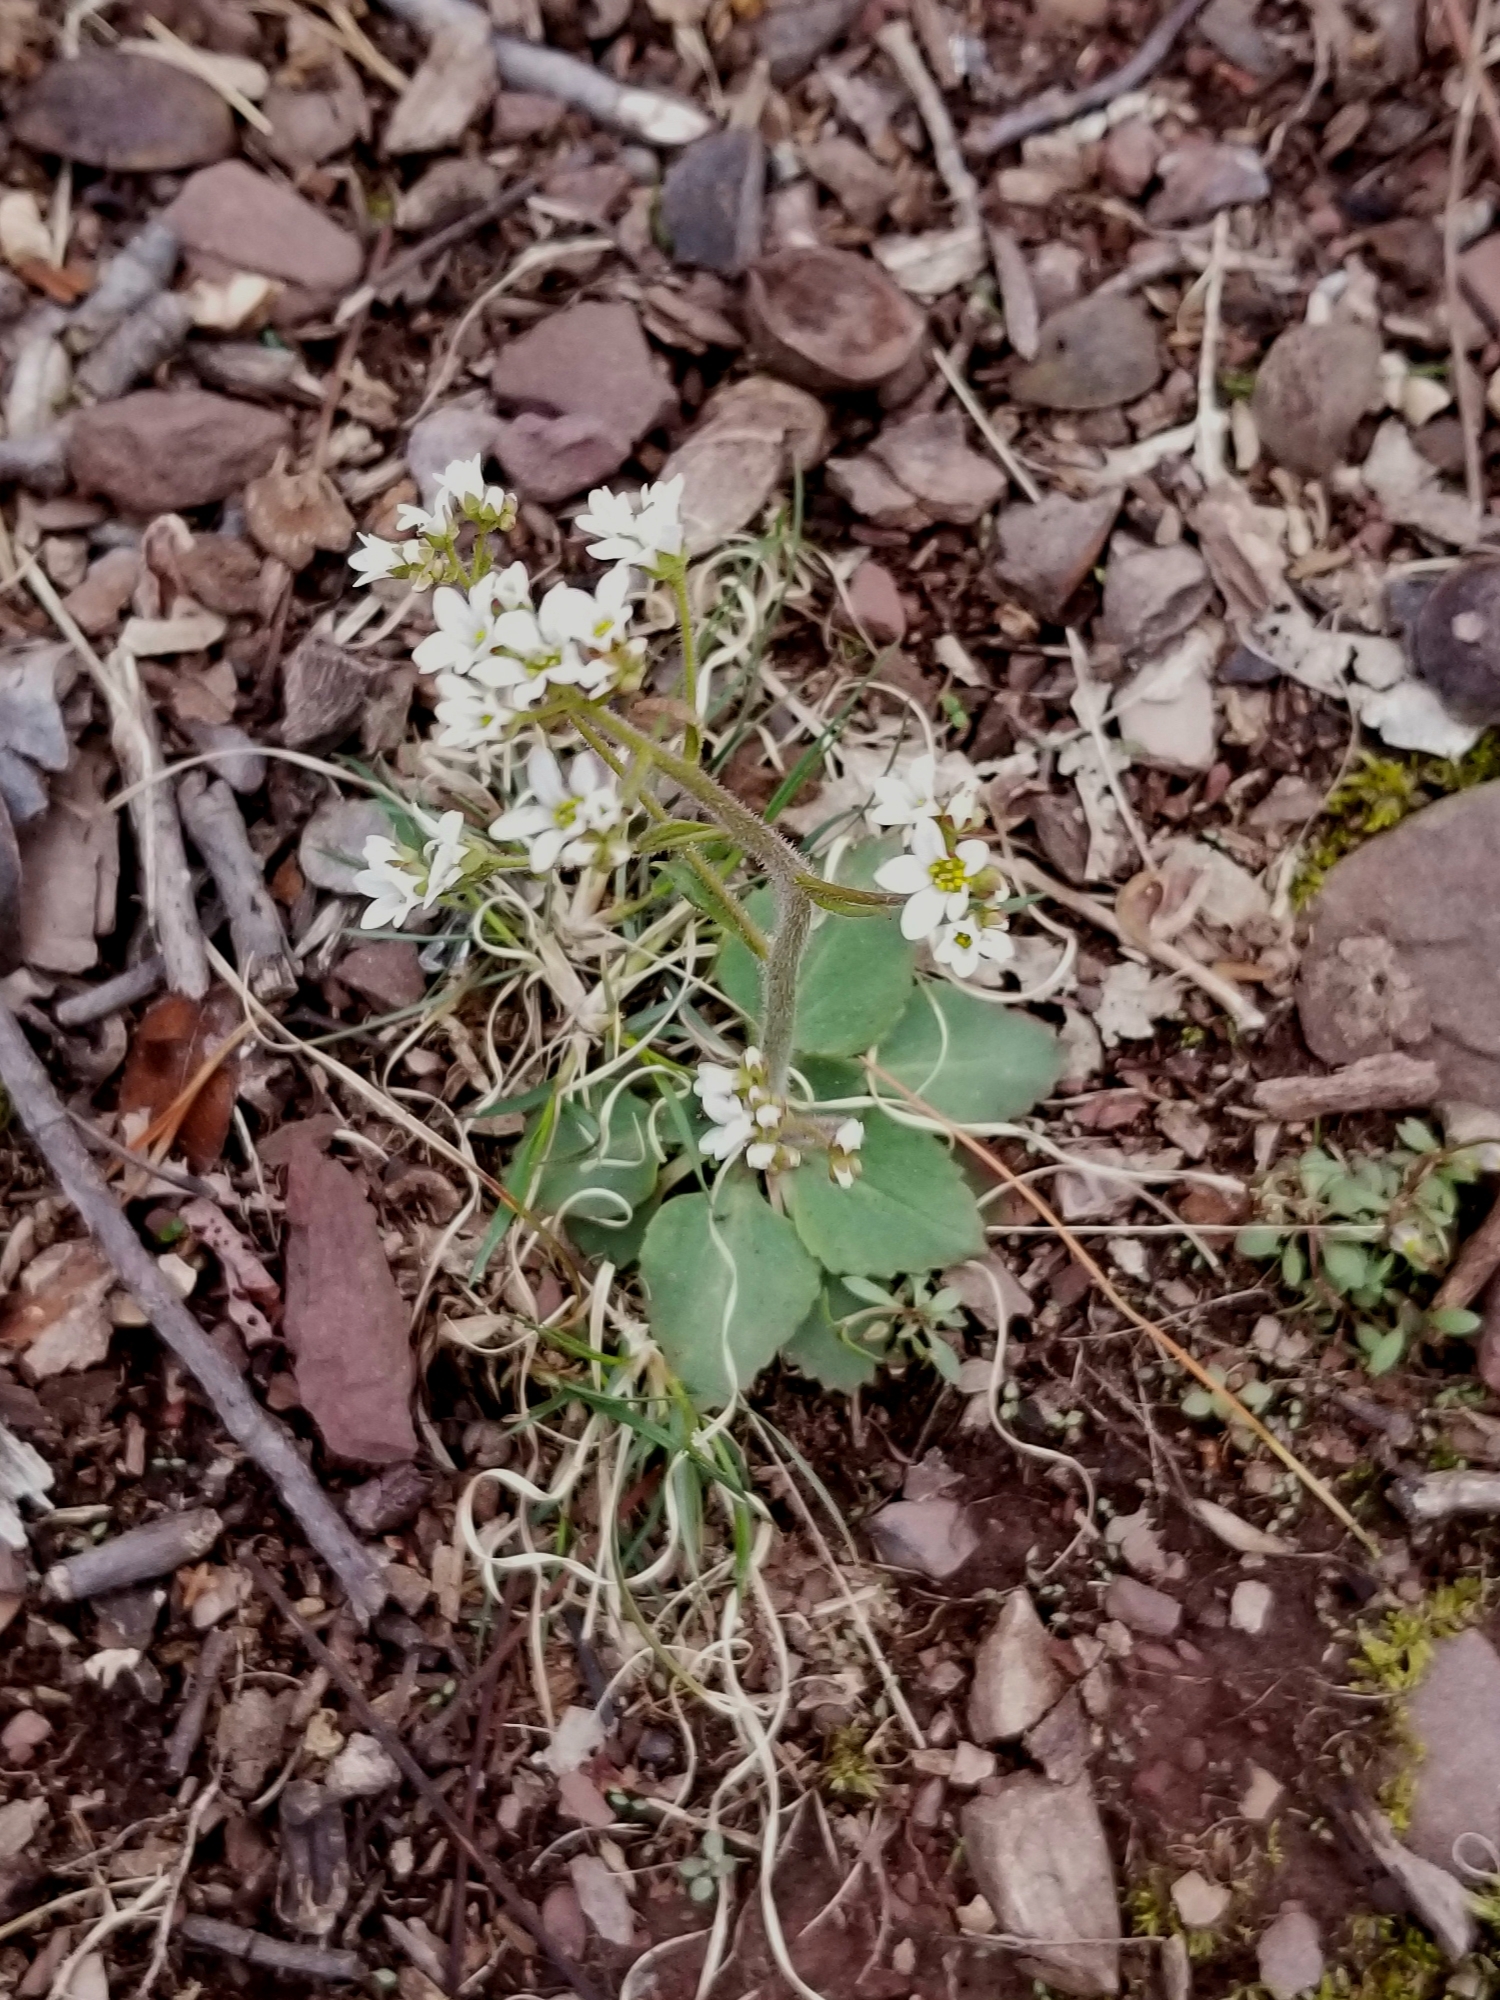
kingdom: Plantae
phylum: Tracheophyta
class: Magnoliopsida
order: Saxifragales
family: Saxifragaceae
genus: Micranthes
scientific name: Micranthes virginiensis
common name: Early saxifrage
